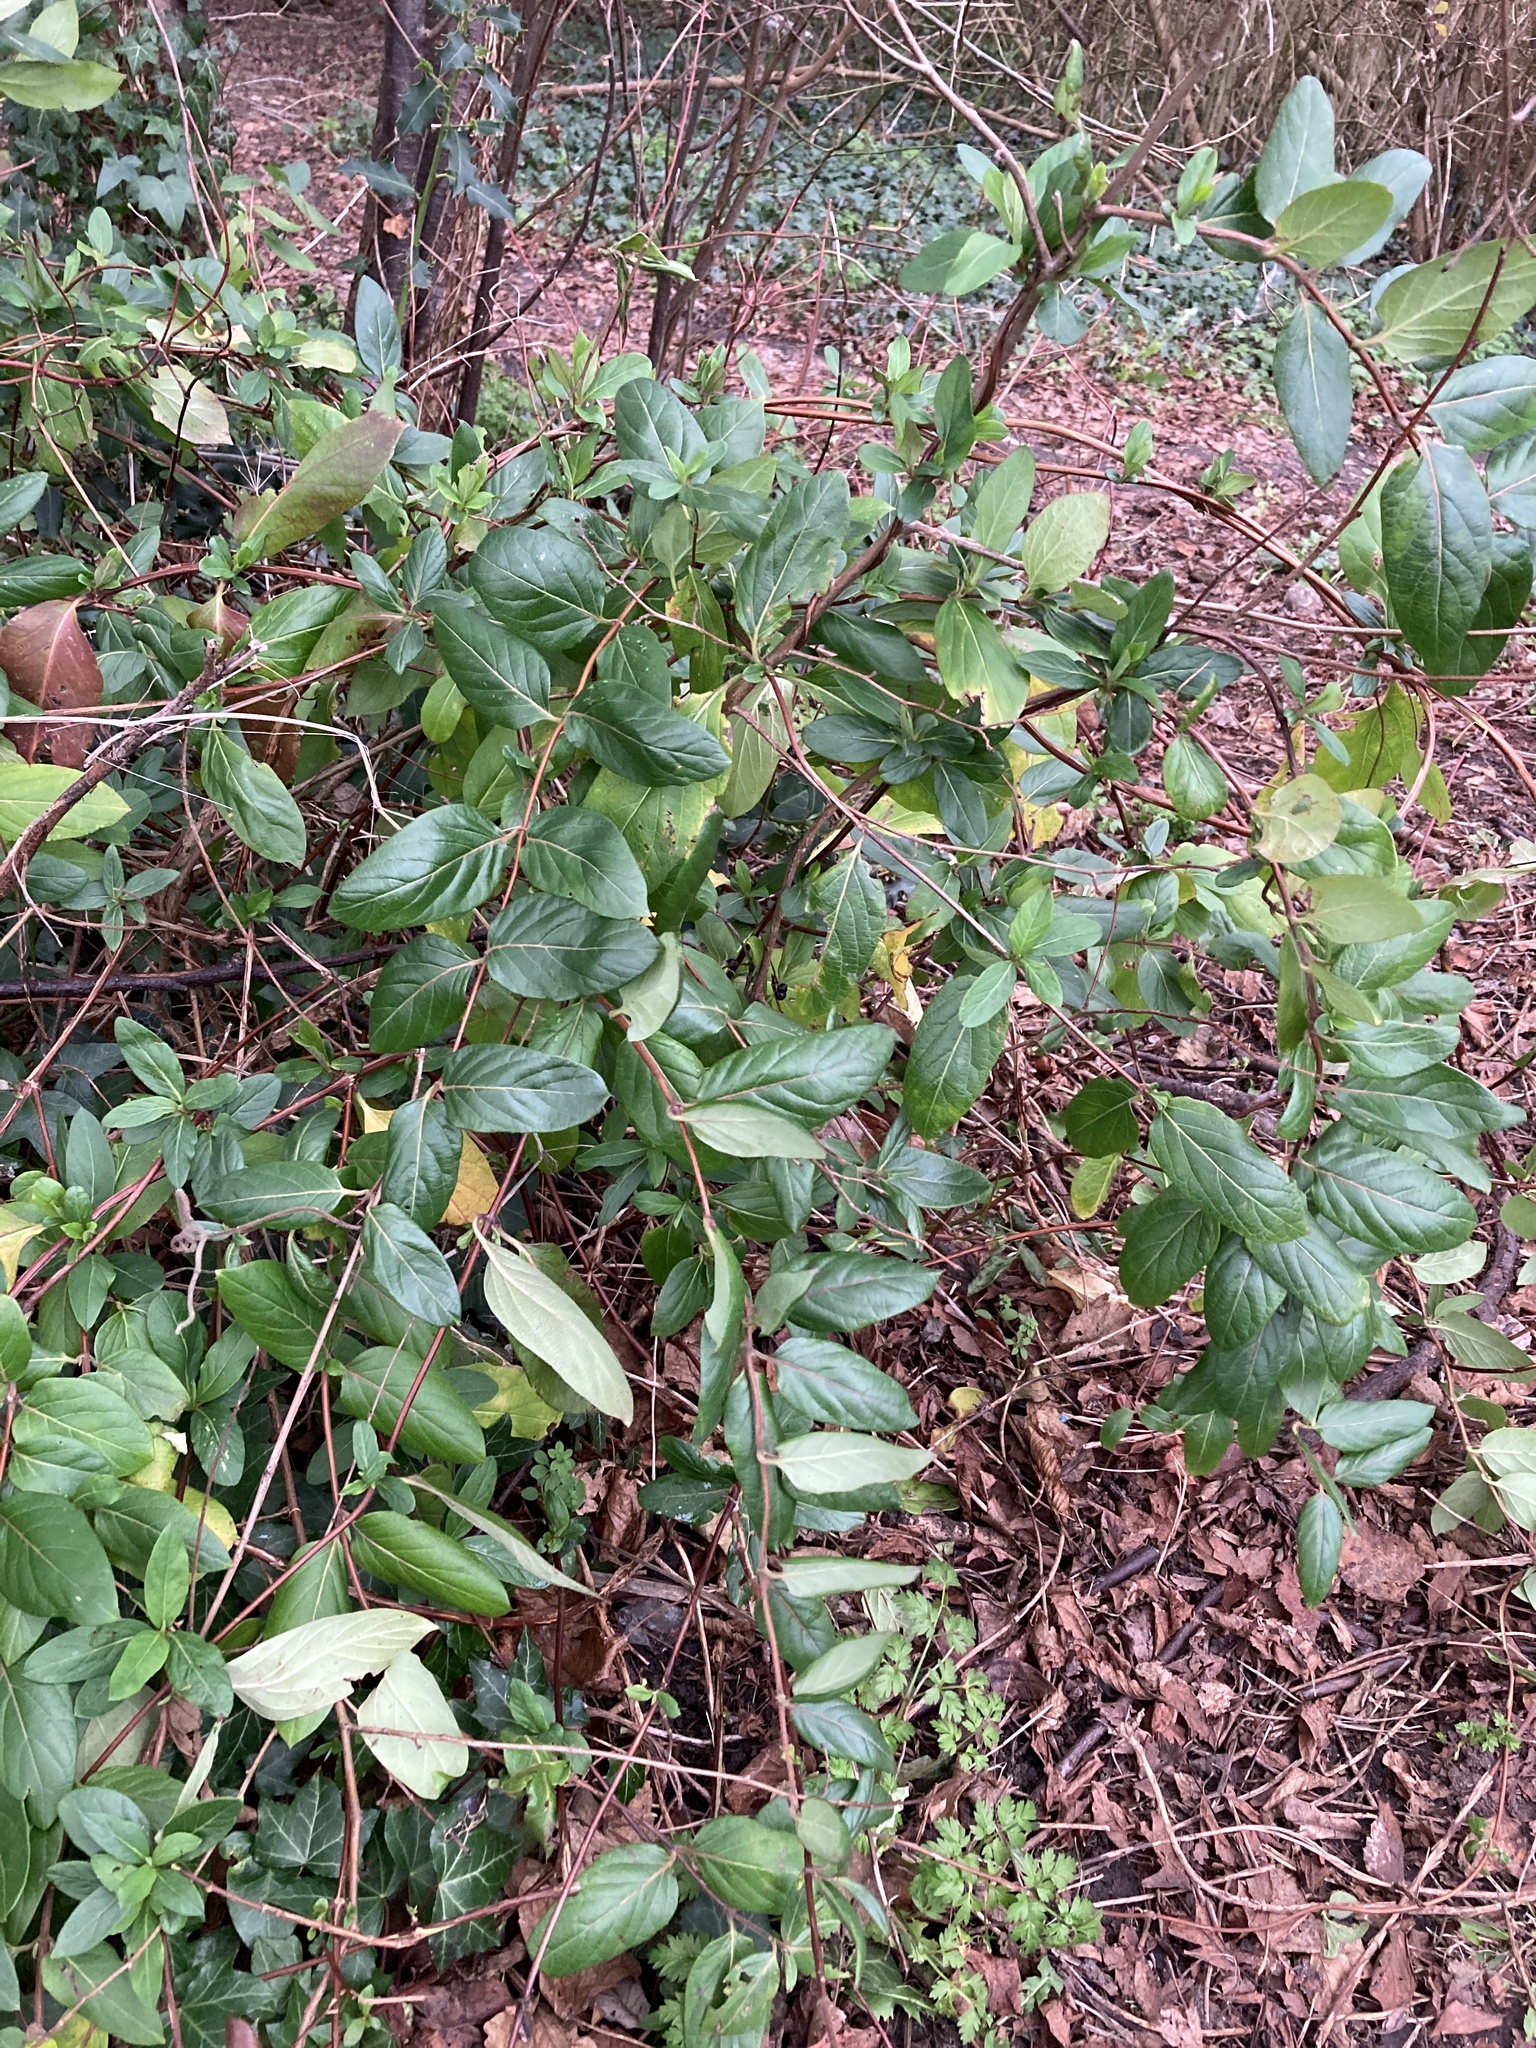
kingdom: Plantae
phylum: Tracheophyta
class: Magnoliopsida
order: Dipsacales
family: Caprifoliaceae
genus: Lonicera
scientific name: Lonicera japonica
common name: Japanese honeysuckle
